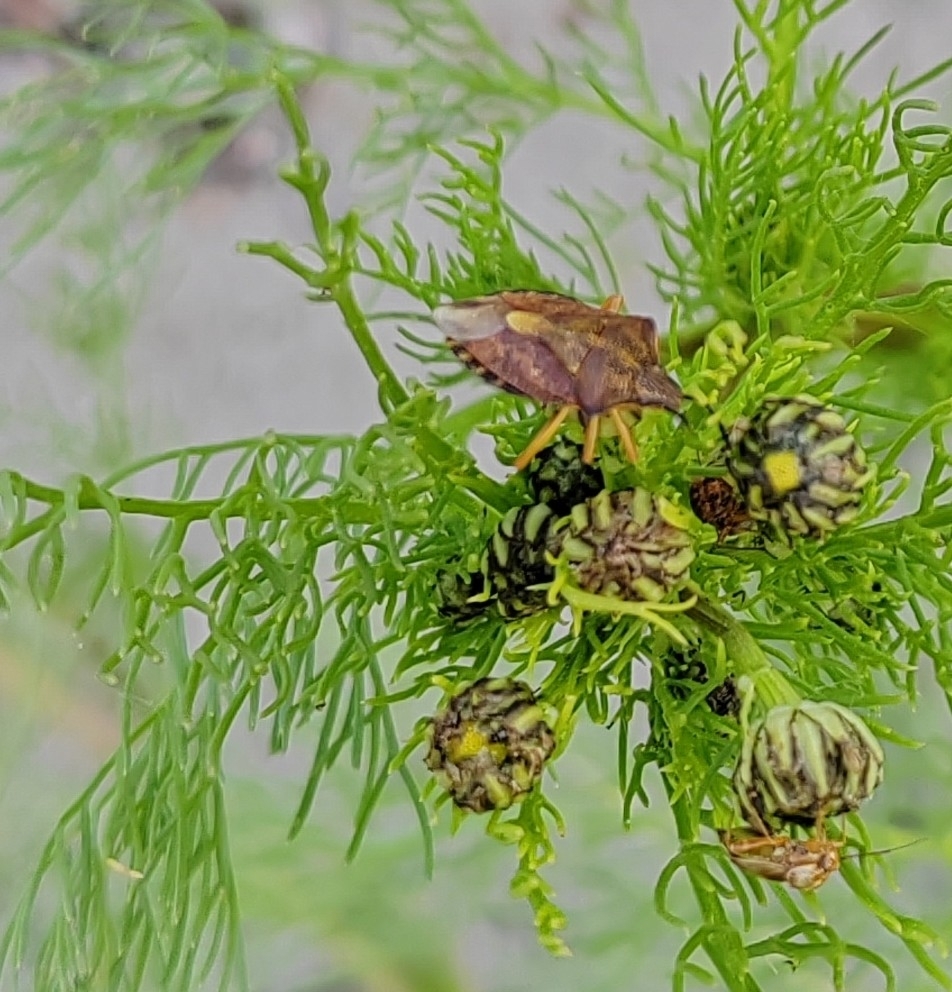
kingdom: Animalia
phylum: Arthropoda
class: Insecta
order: Hemiptera
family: Pentatomidae
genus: Carpocoris
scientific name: Carpocoris purpureipennis
